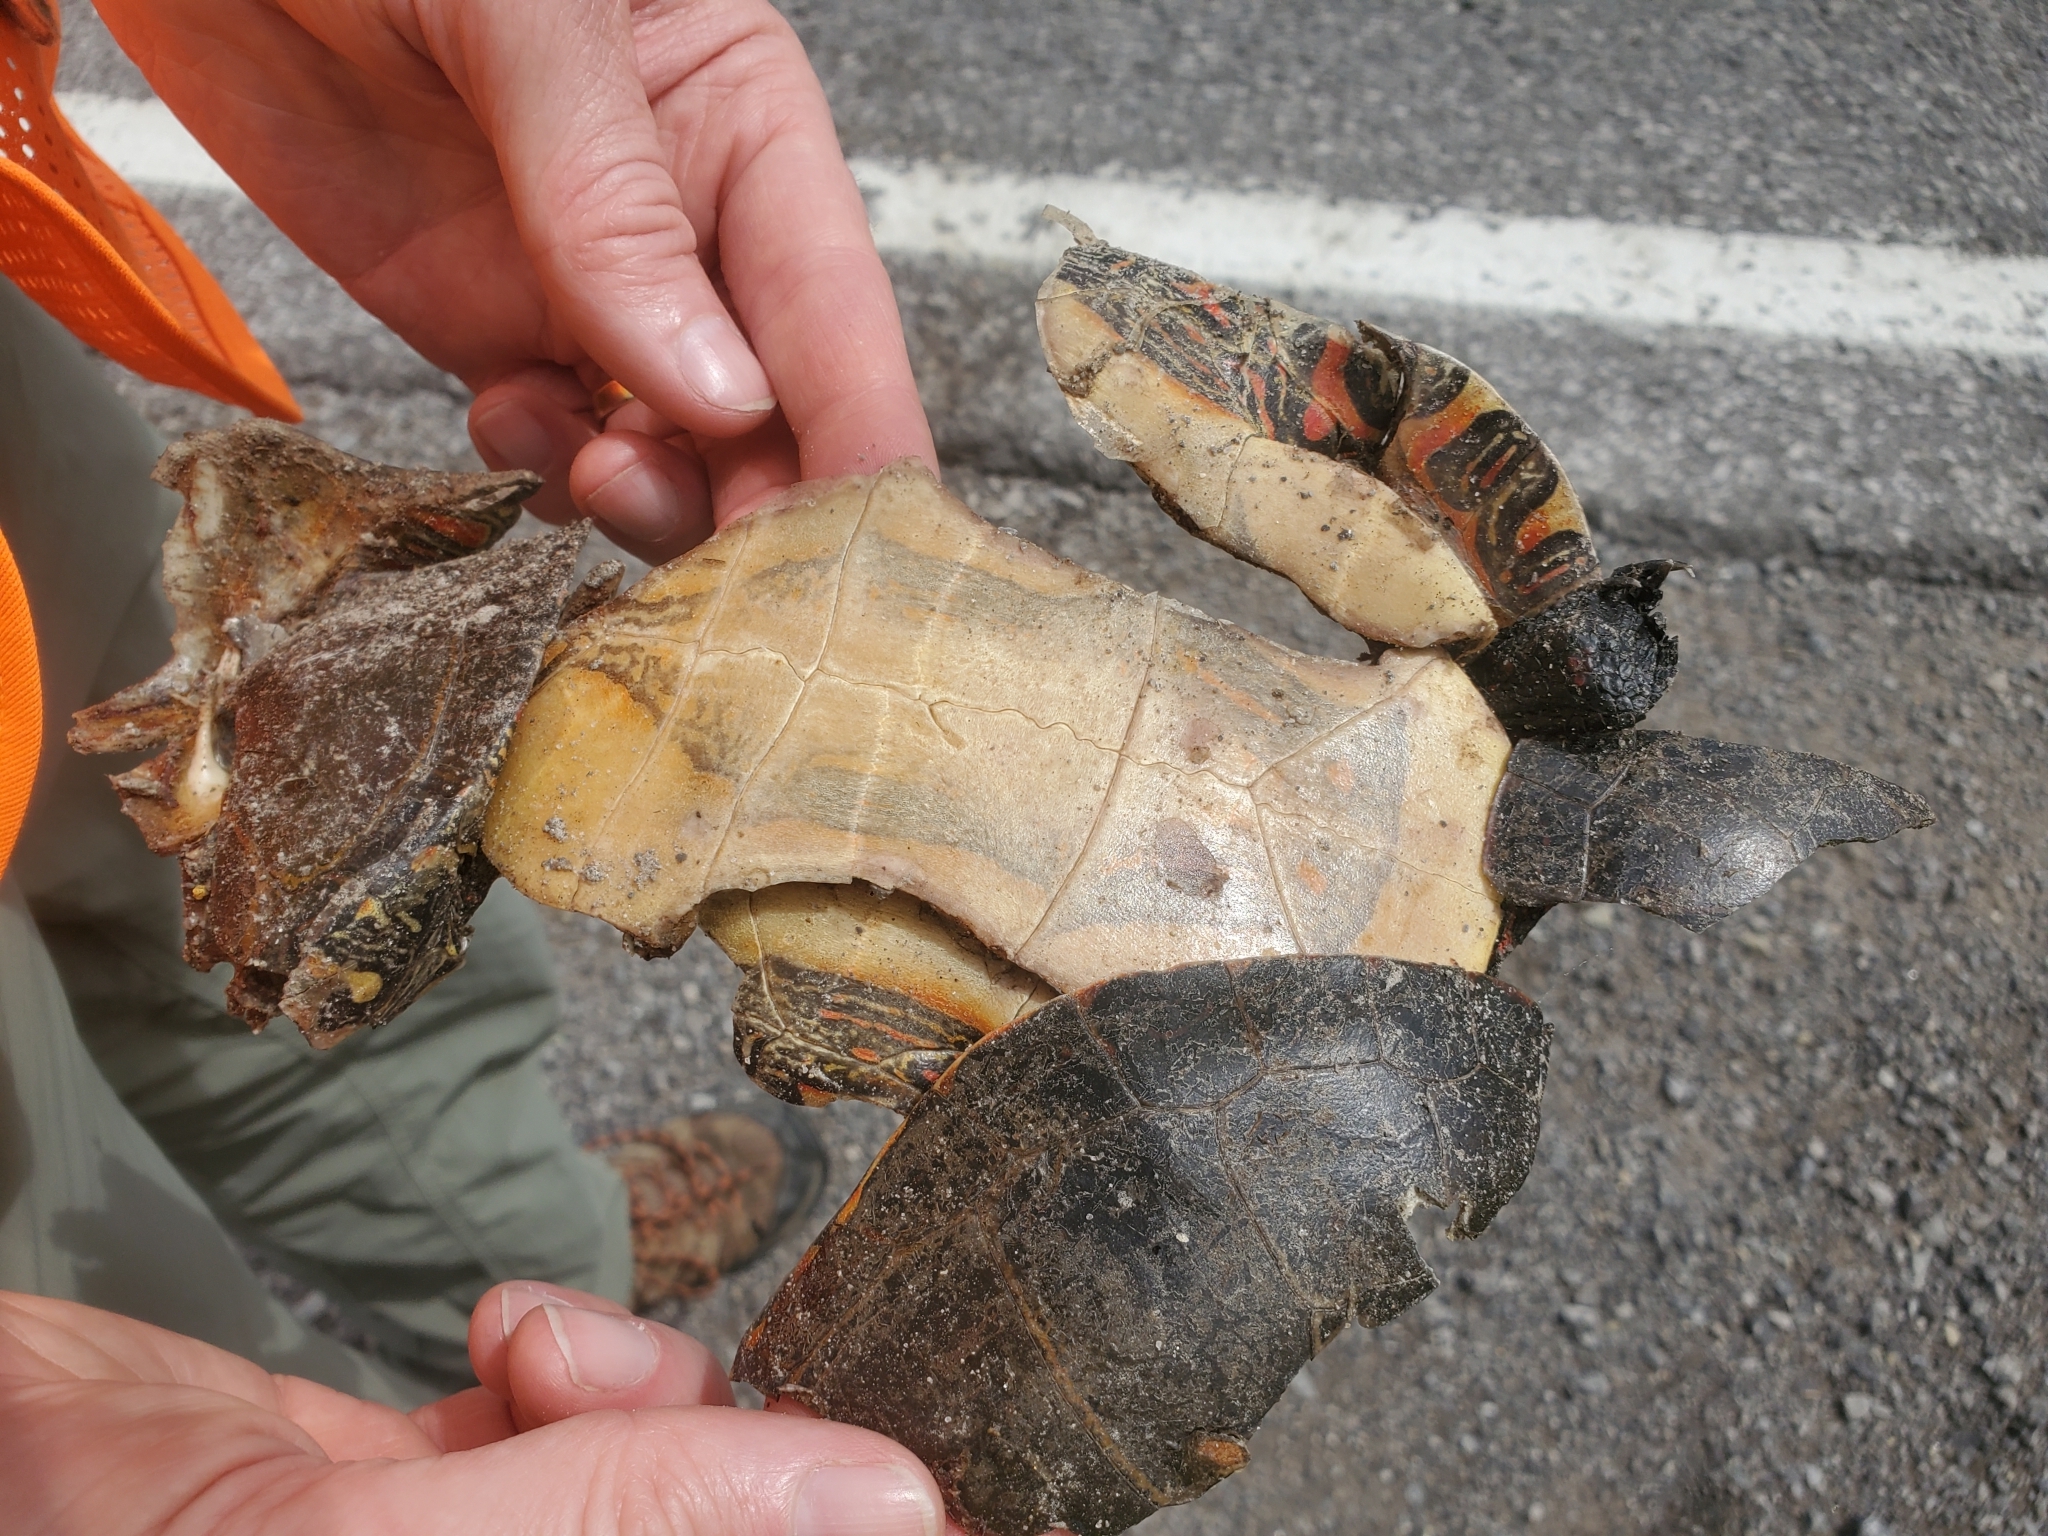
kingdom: Animalia
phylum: Chordata
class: Testudines
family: Emydidae
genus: Chrysemys
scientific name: Chrysemys picta
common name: Painted turtle
